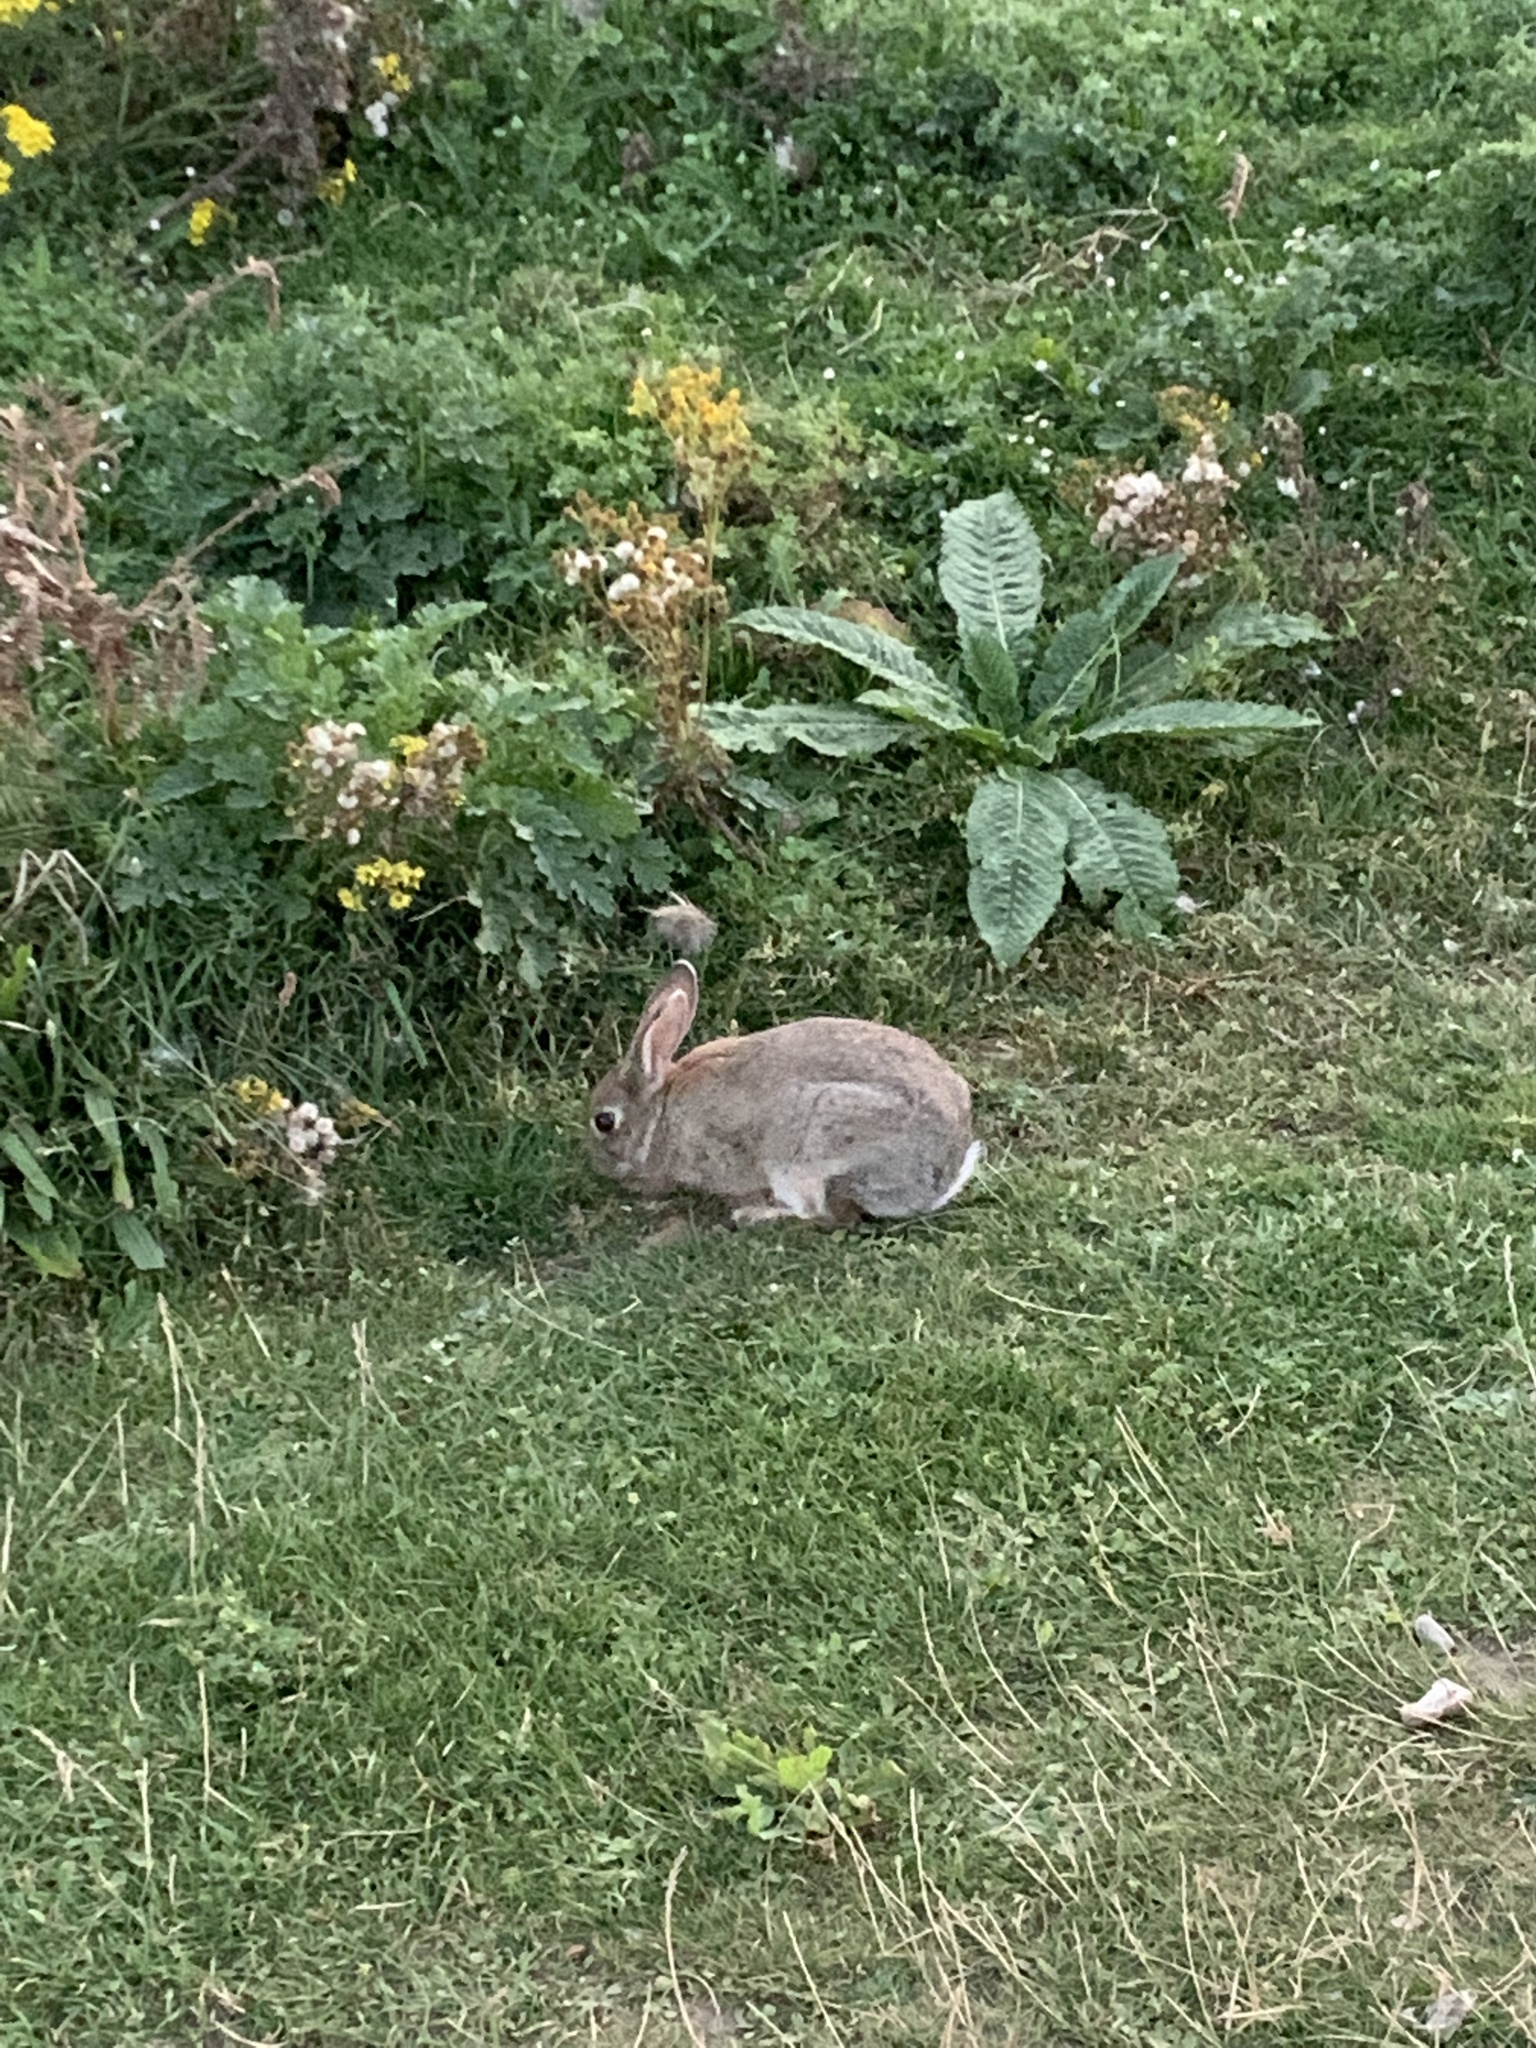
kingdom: Animalia
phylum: Chordata
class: Mammalia
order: Lagomorpha
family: Leporidae
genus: Oryctolagus
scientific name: Oryctolagus cuniculus
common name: European rabbit
